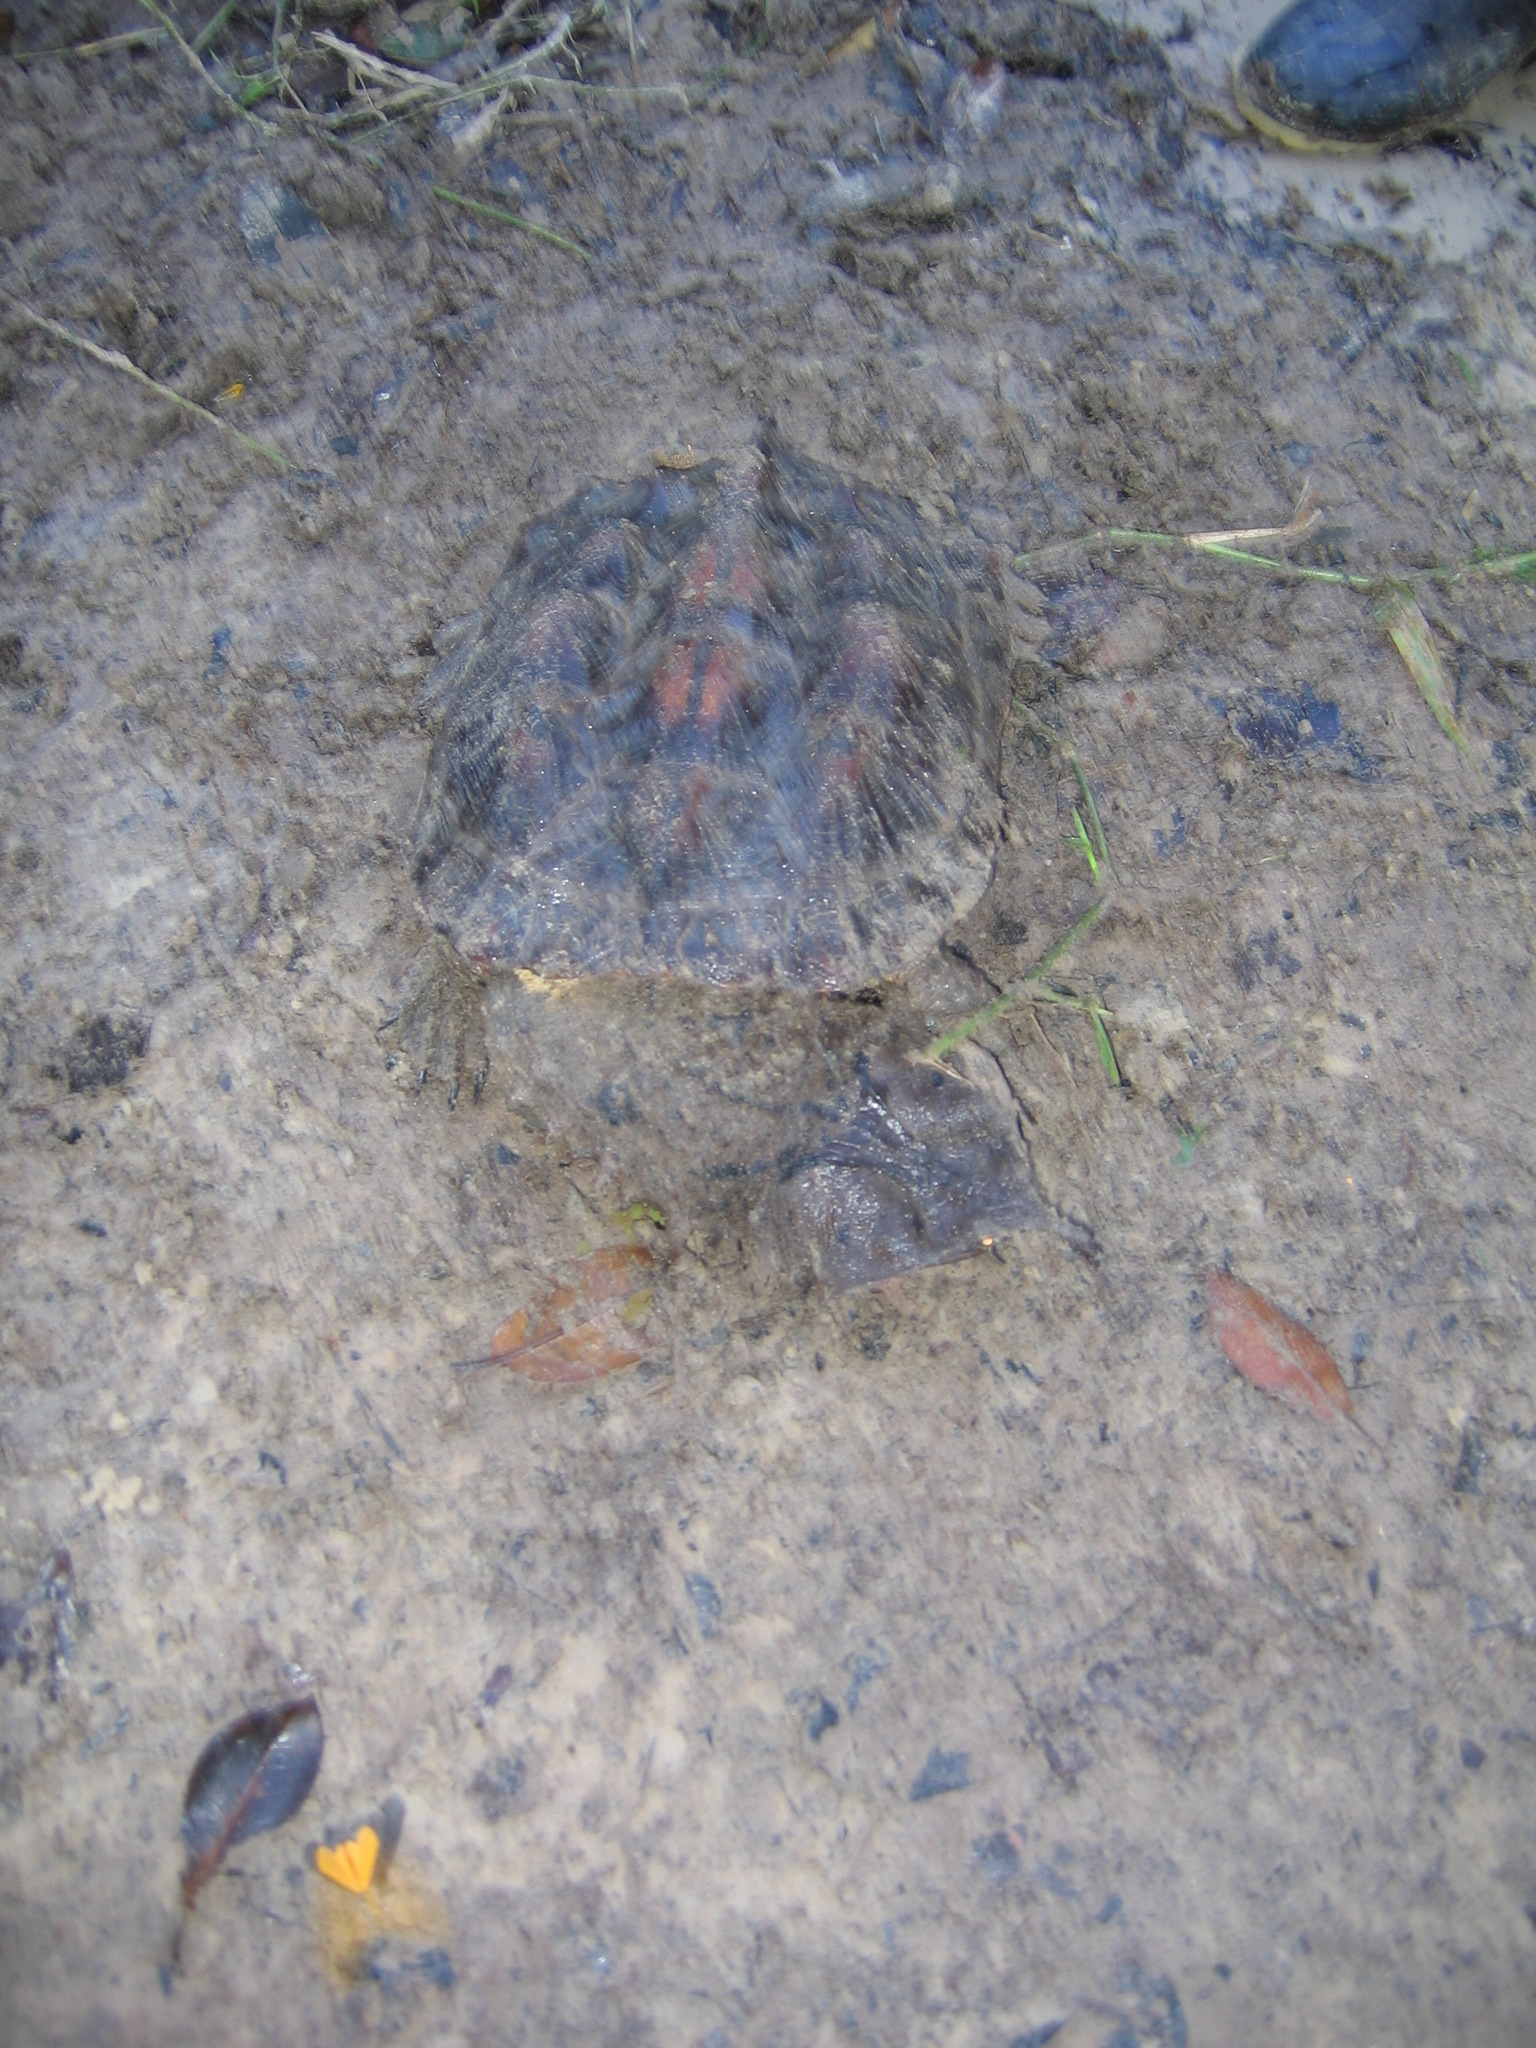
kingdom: Animalia
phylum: Chordata
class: Testudines
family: Chelidae
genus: Chelus
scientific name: Chelus fimbriata
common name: Mata mata
